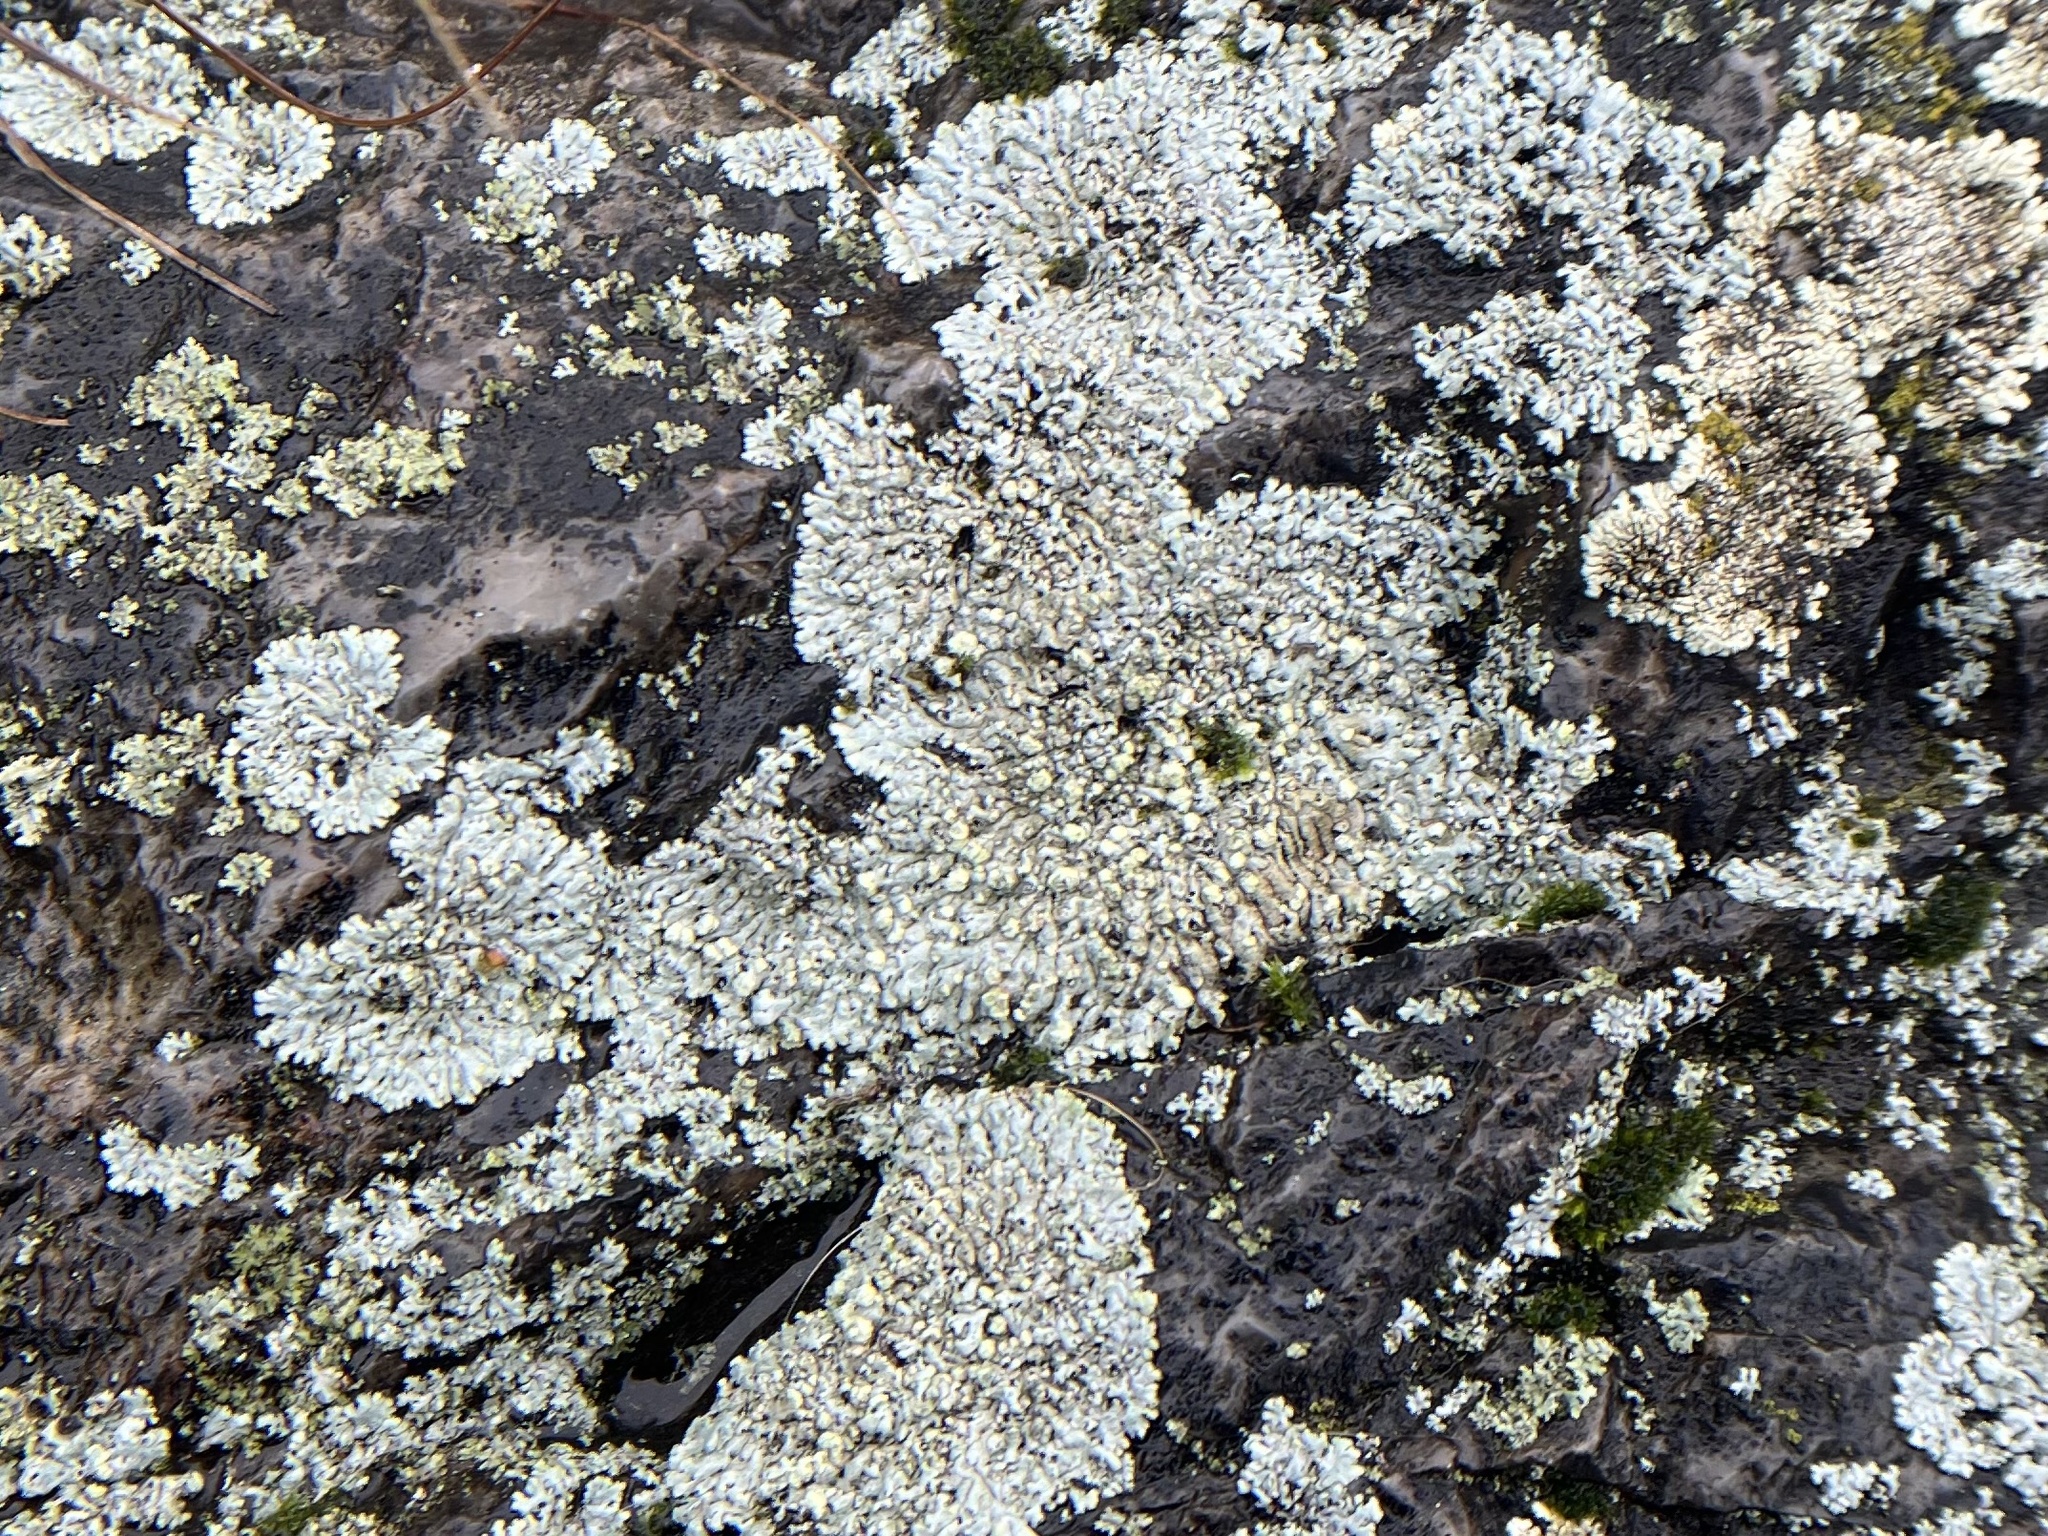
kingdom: Fungi
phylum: Ascomycota
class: Lecanoromycetes
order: Caliciales
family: Physciaceae
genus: Physcia
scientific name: Physcia caesia
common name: Blue-gray rosette lichen
